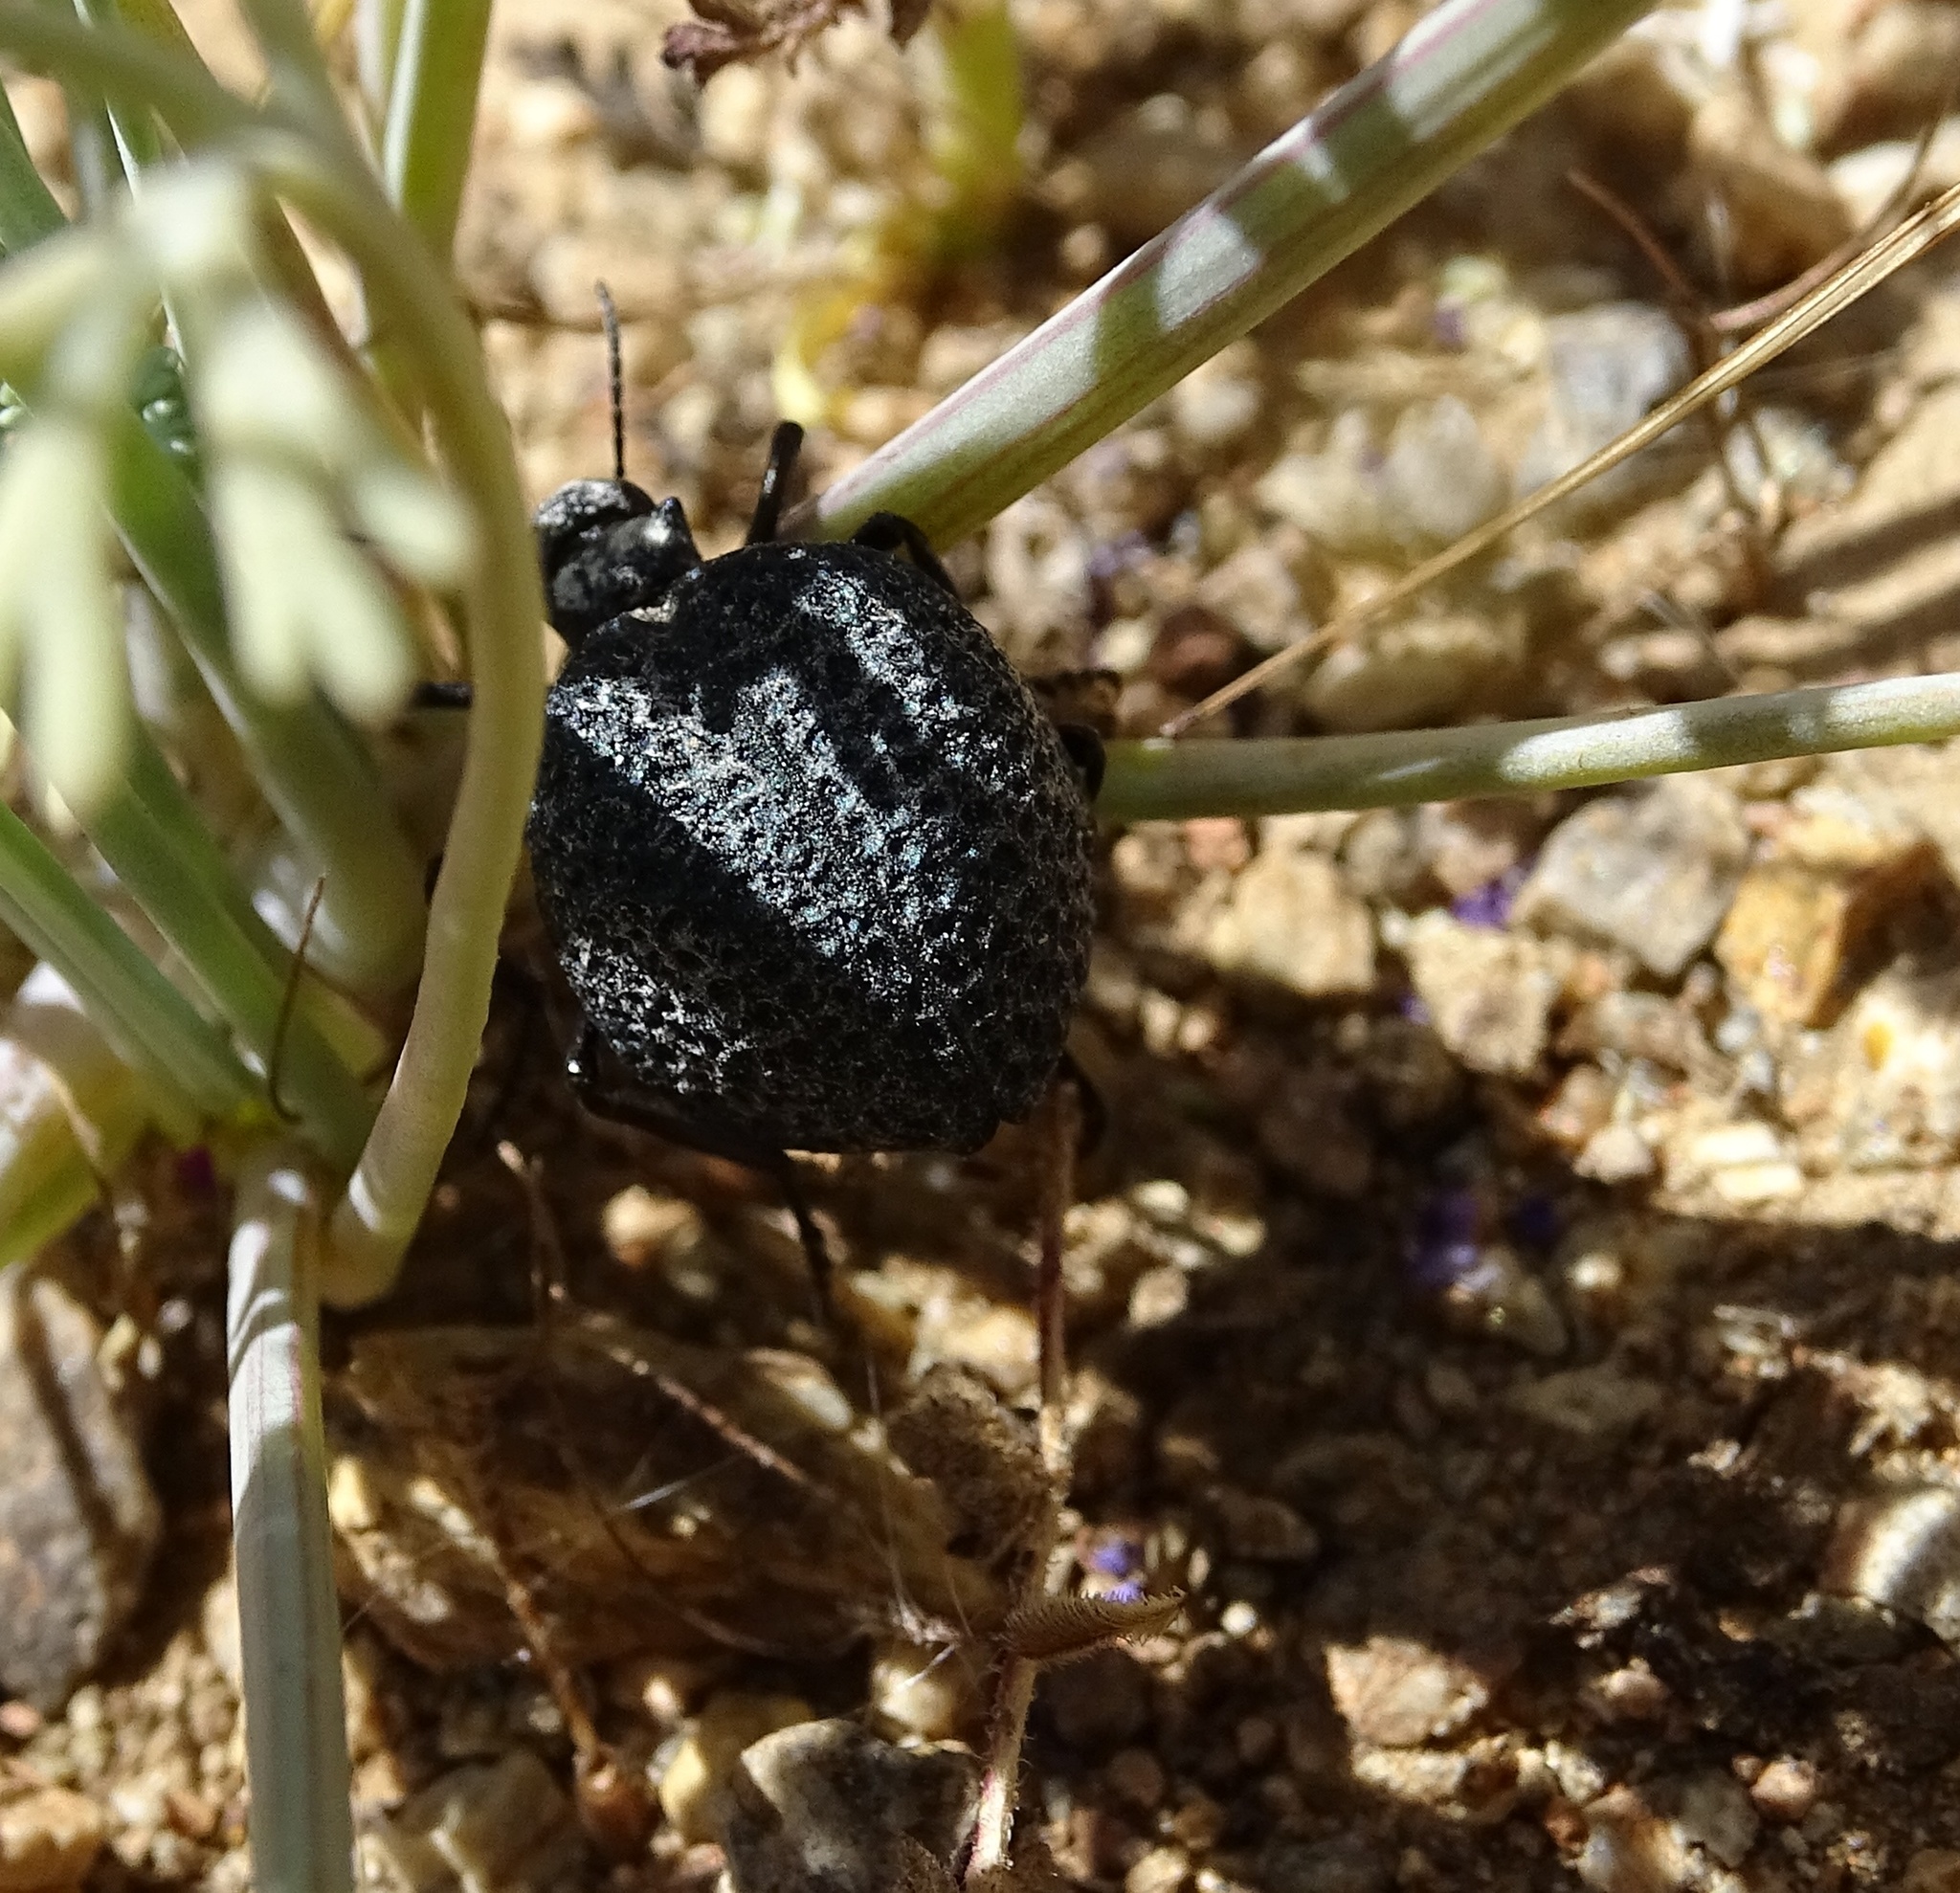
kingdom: Animalia
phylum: Arthropoda
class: Insecta
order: Coleoptera
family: Meloidae
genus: Cysteodemus
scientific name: Cysteodemus armatus
